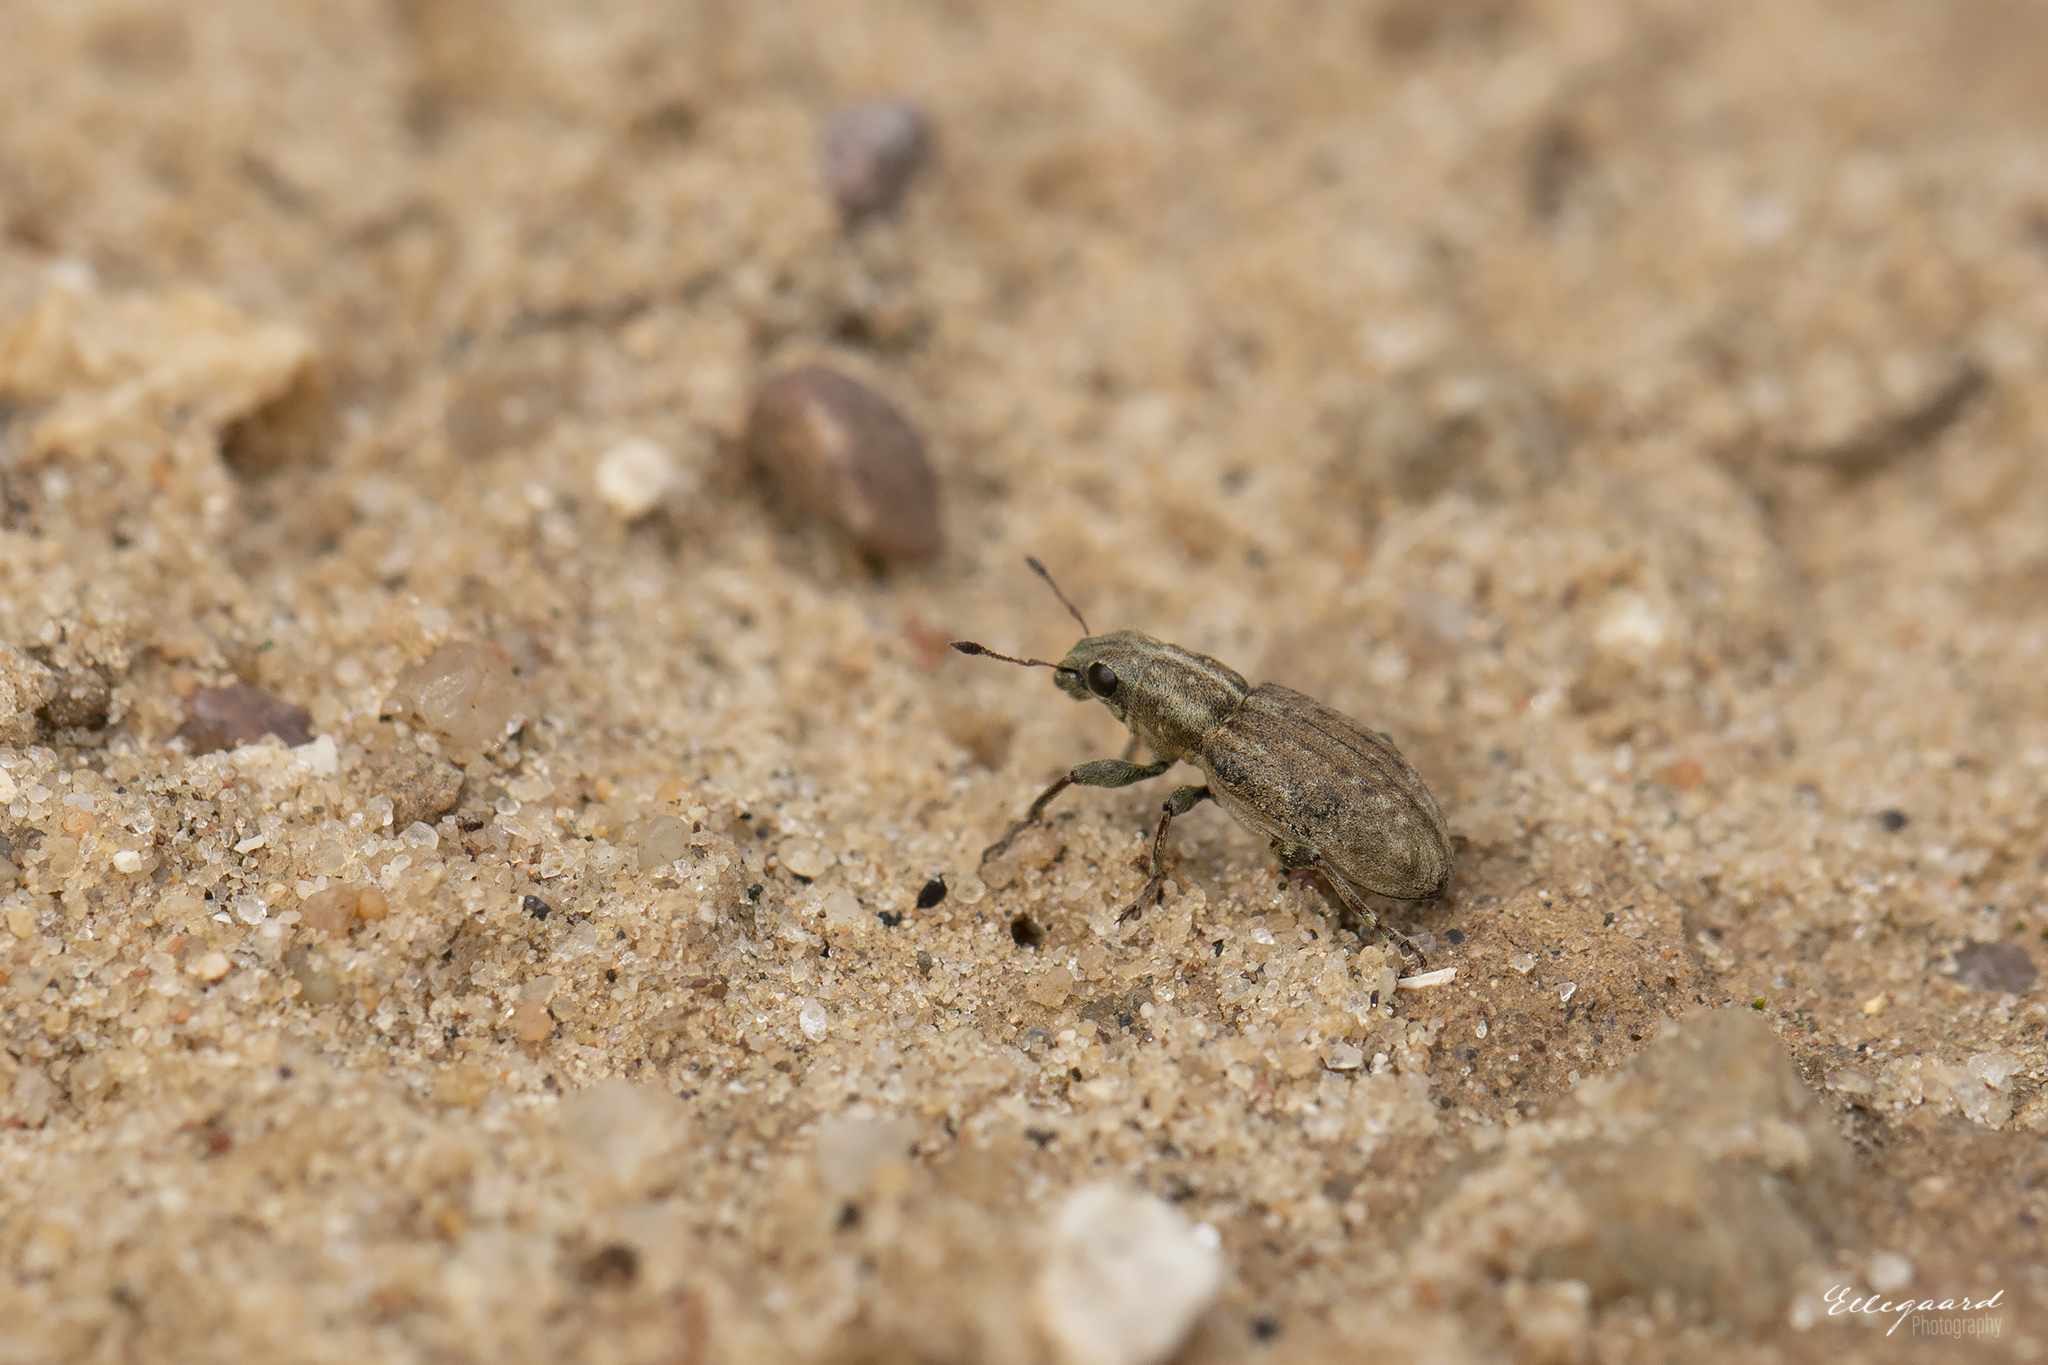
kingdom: Animalia
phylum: Arthropoda
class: Insecta
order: Coleoptera
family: Curculionidae
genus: Sitona
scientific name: Sitona obsoletus
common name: Weevil
